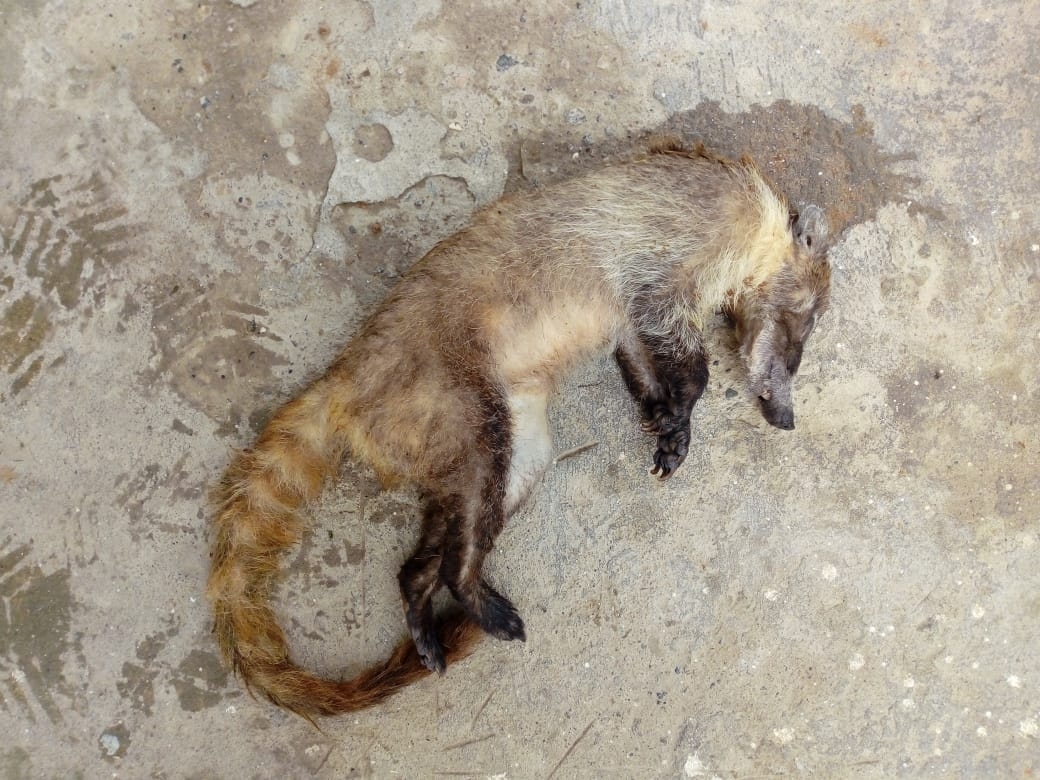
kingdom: Animalia
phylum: Chordata
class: Mammalia
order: Carnivora
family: Procyonidae
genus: Nasua
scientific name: Nasua narica
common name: White-nosed coati
